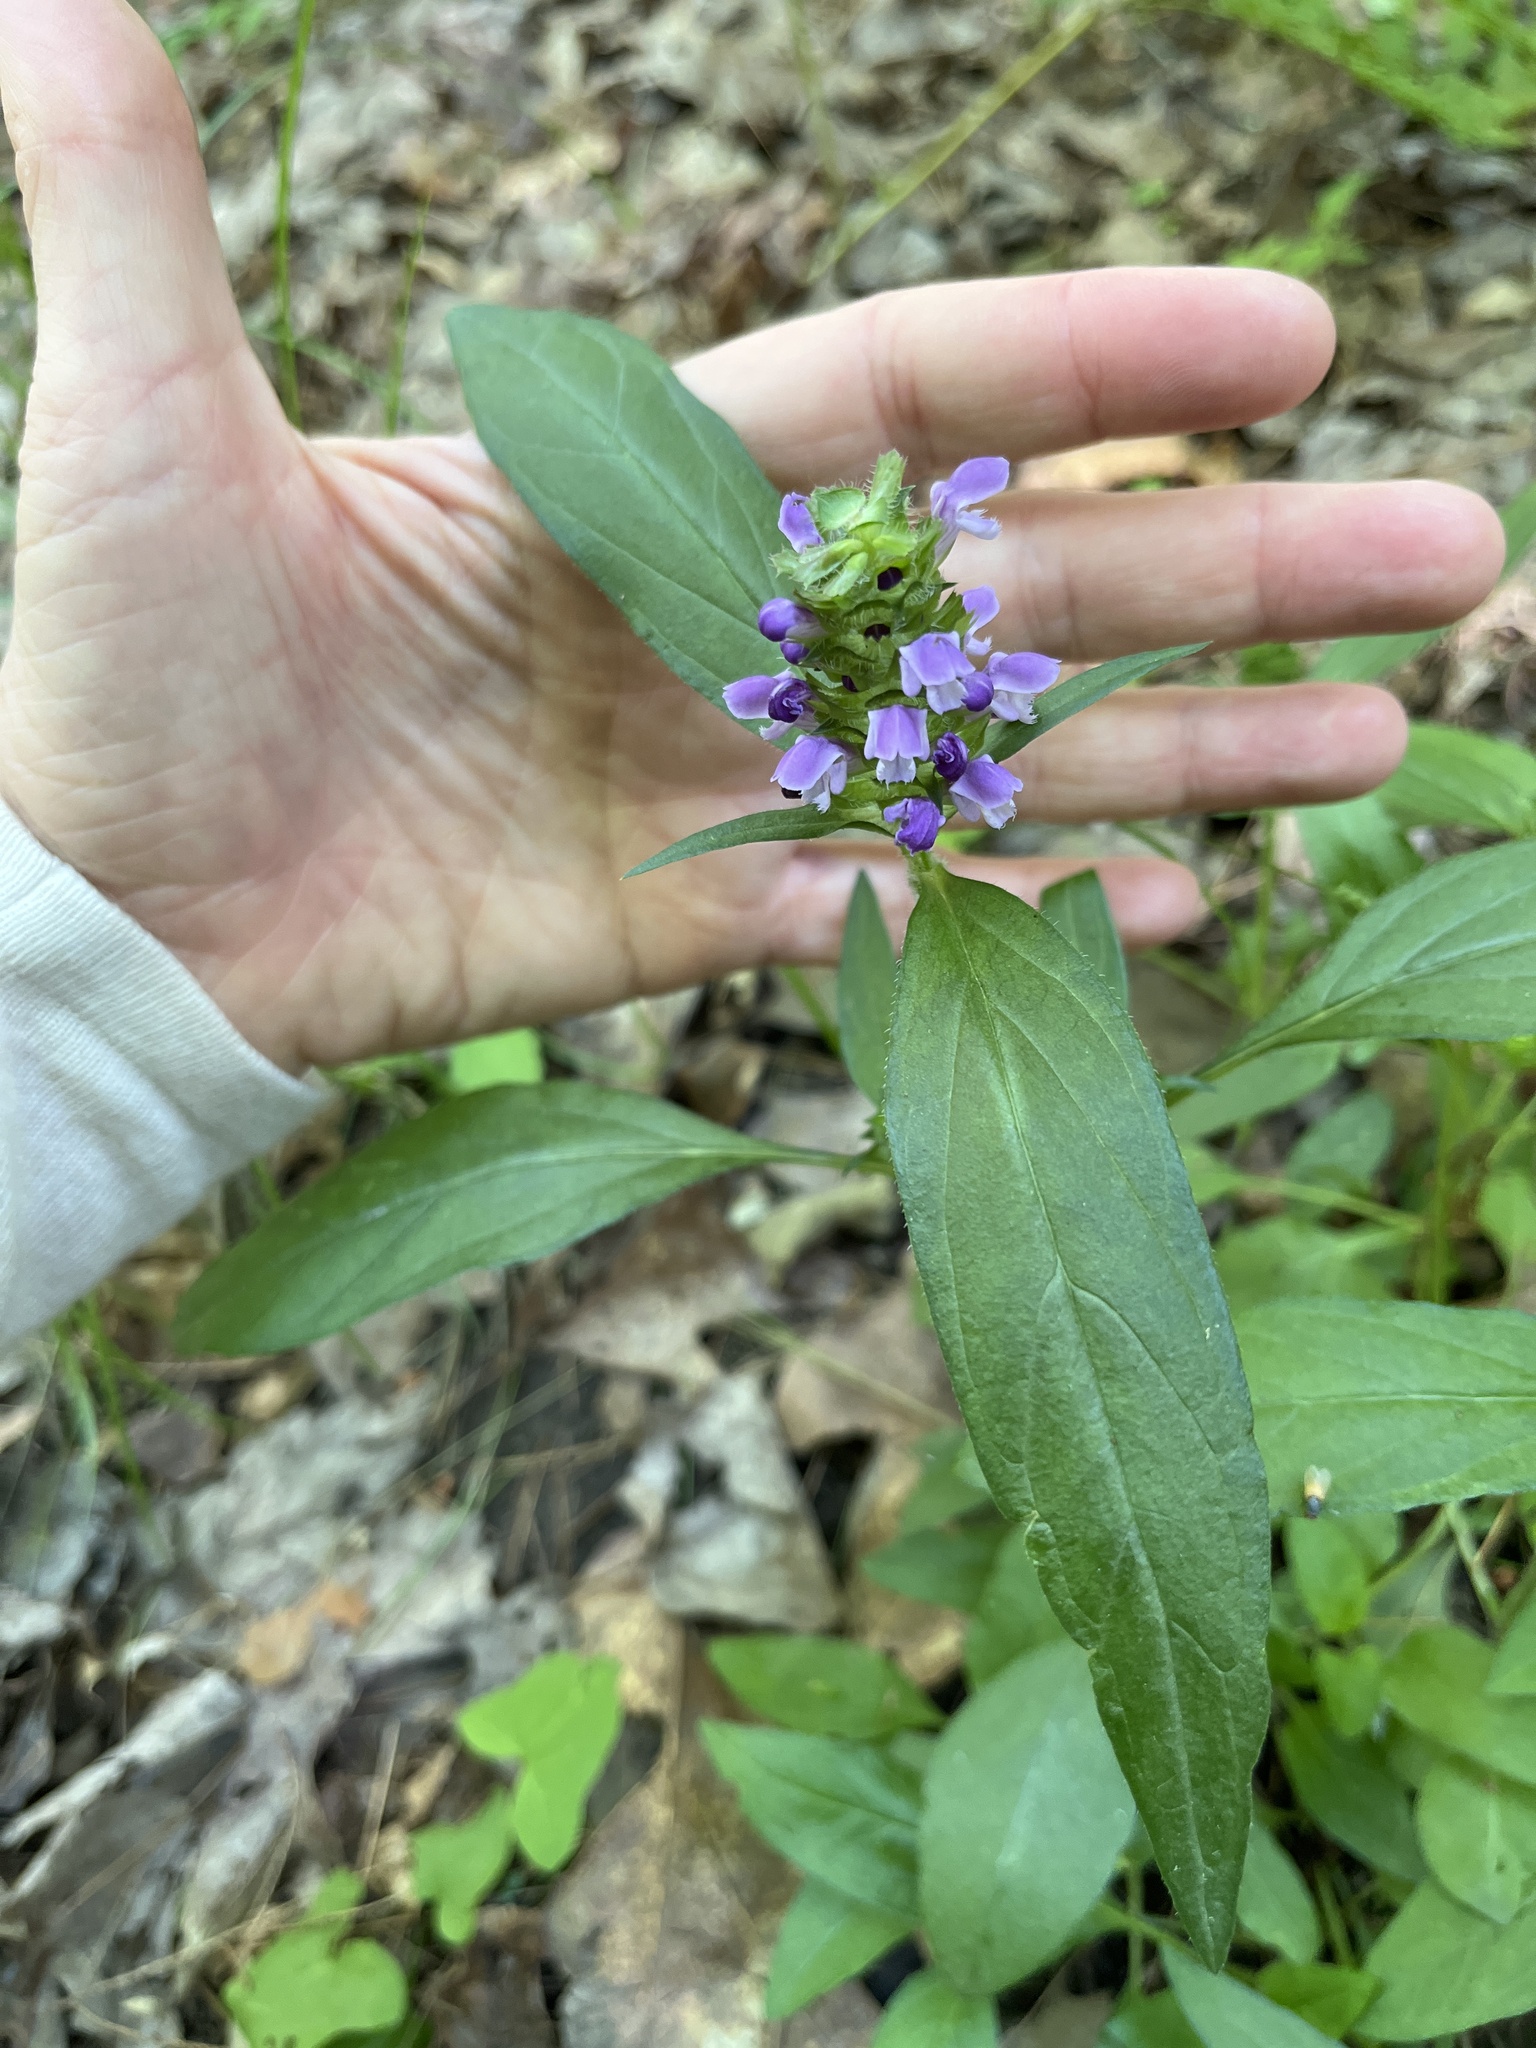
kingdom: Plantae
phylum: Tracheophyta
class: Magnoliopsida
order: Lamiales
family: Lamiaceae
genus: Prunella
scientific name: Prunella vulgaris
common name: Heal-all
